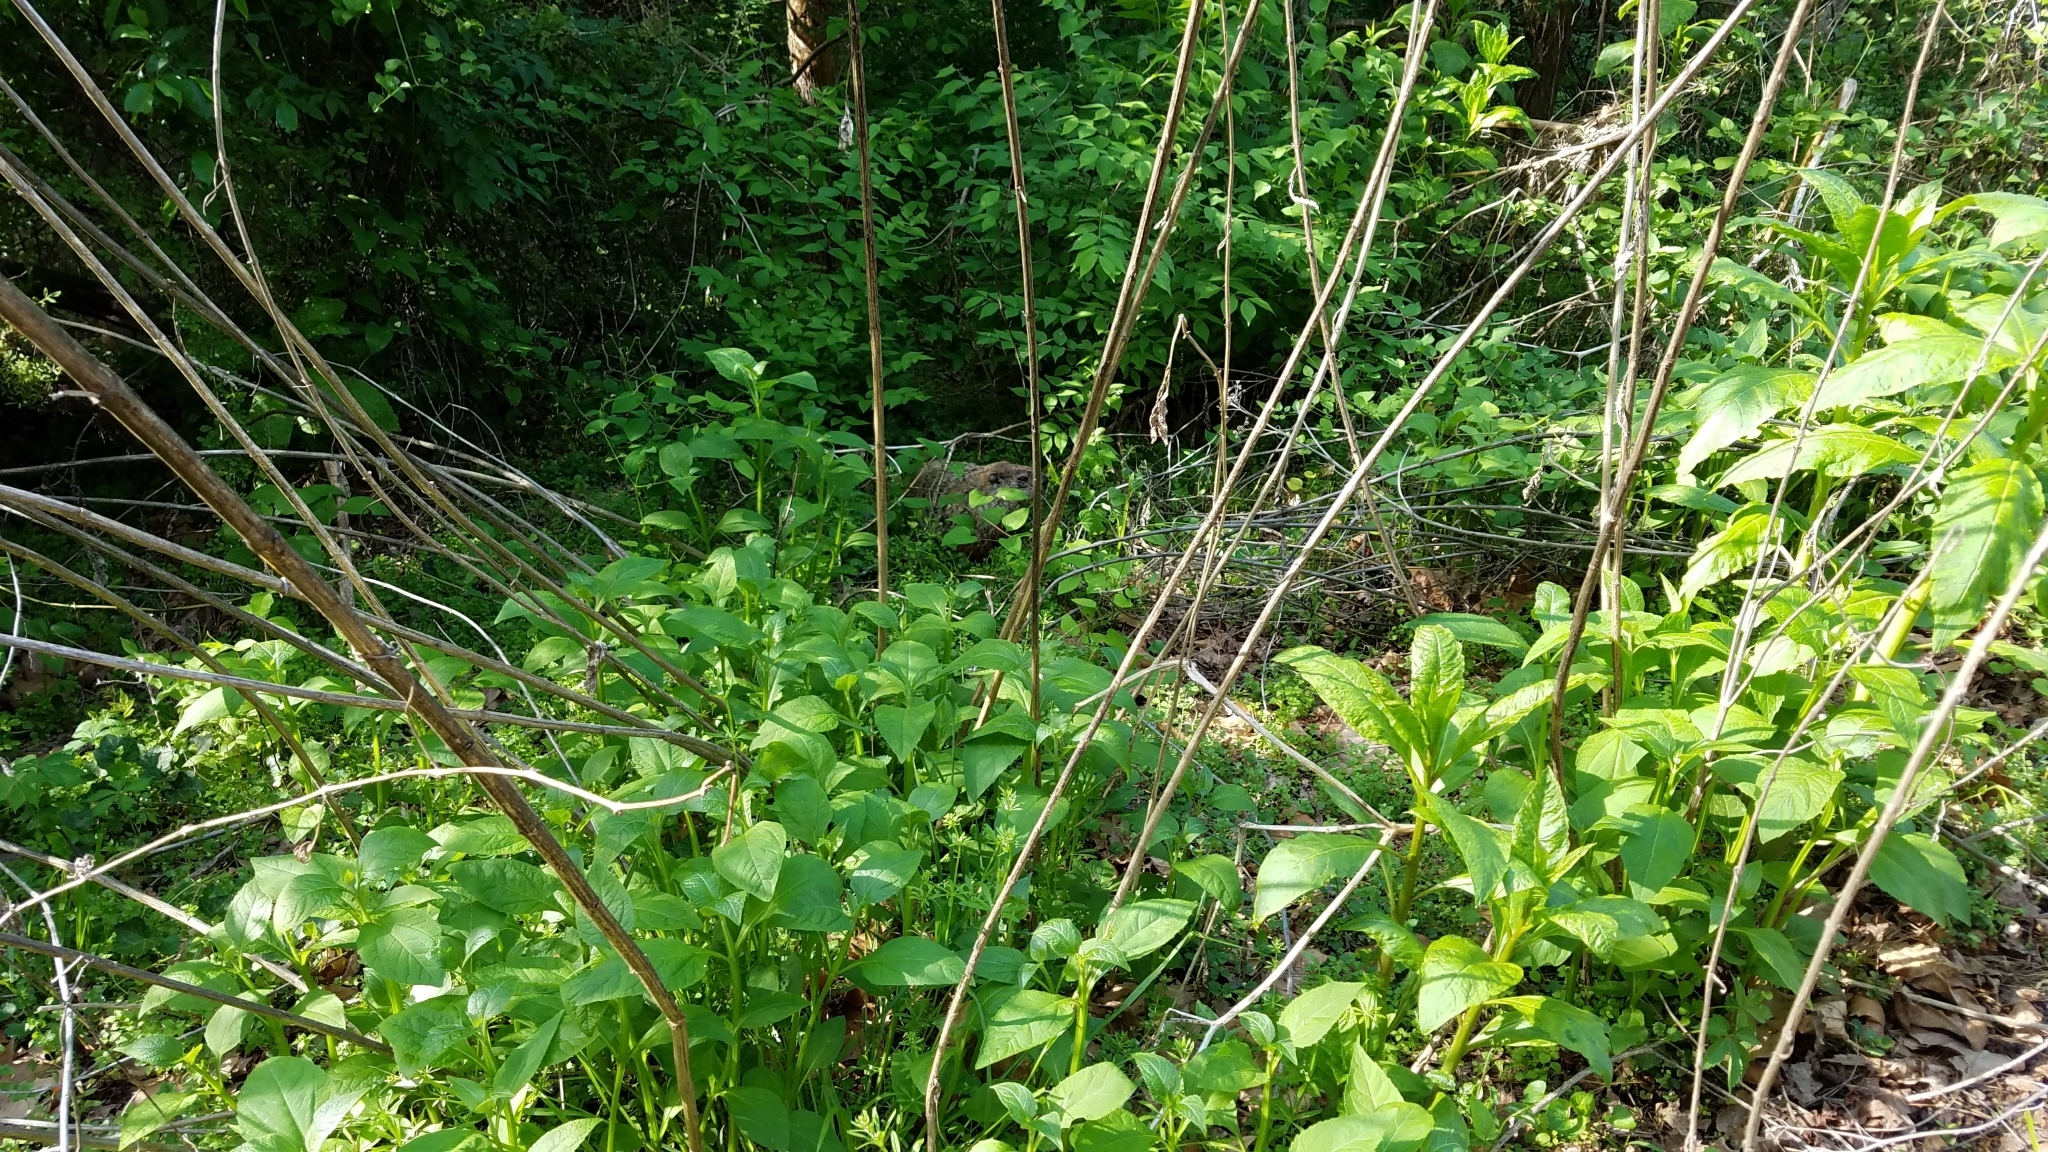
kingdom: Animalia
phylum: Chordata
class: Mammalia
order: Rodentia
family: Sciuridae
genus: Marmota
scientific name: Marmota monax
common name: Groundhog
